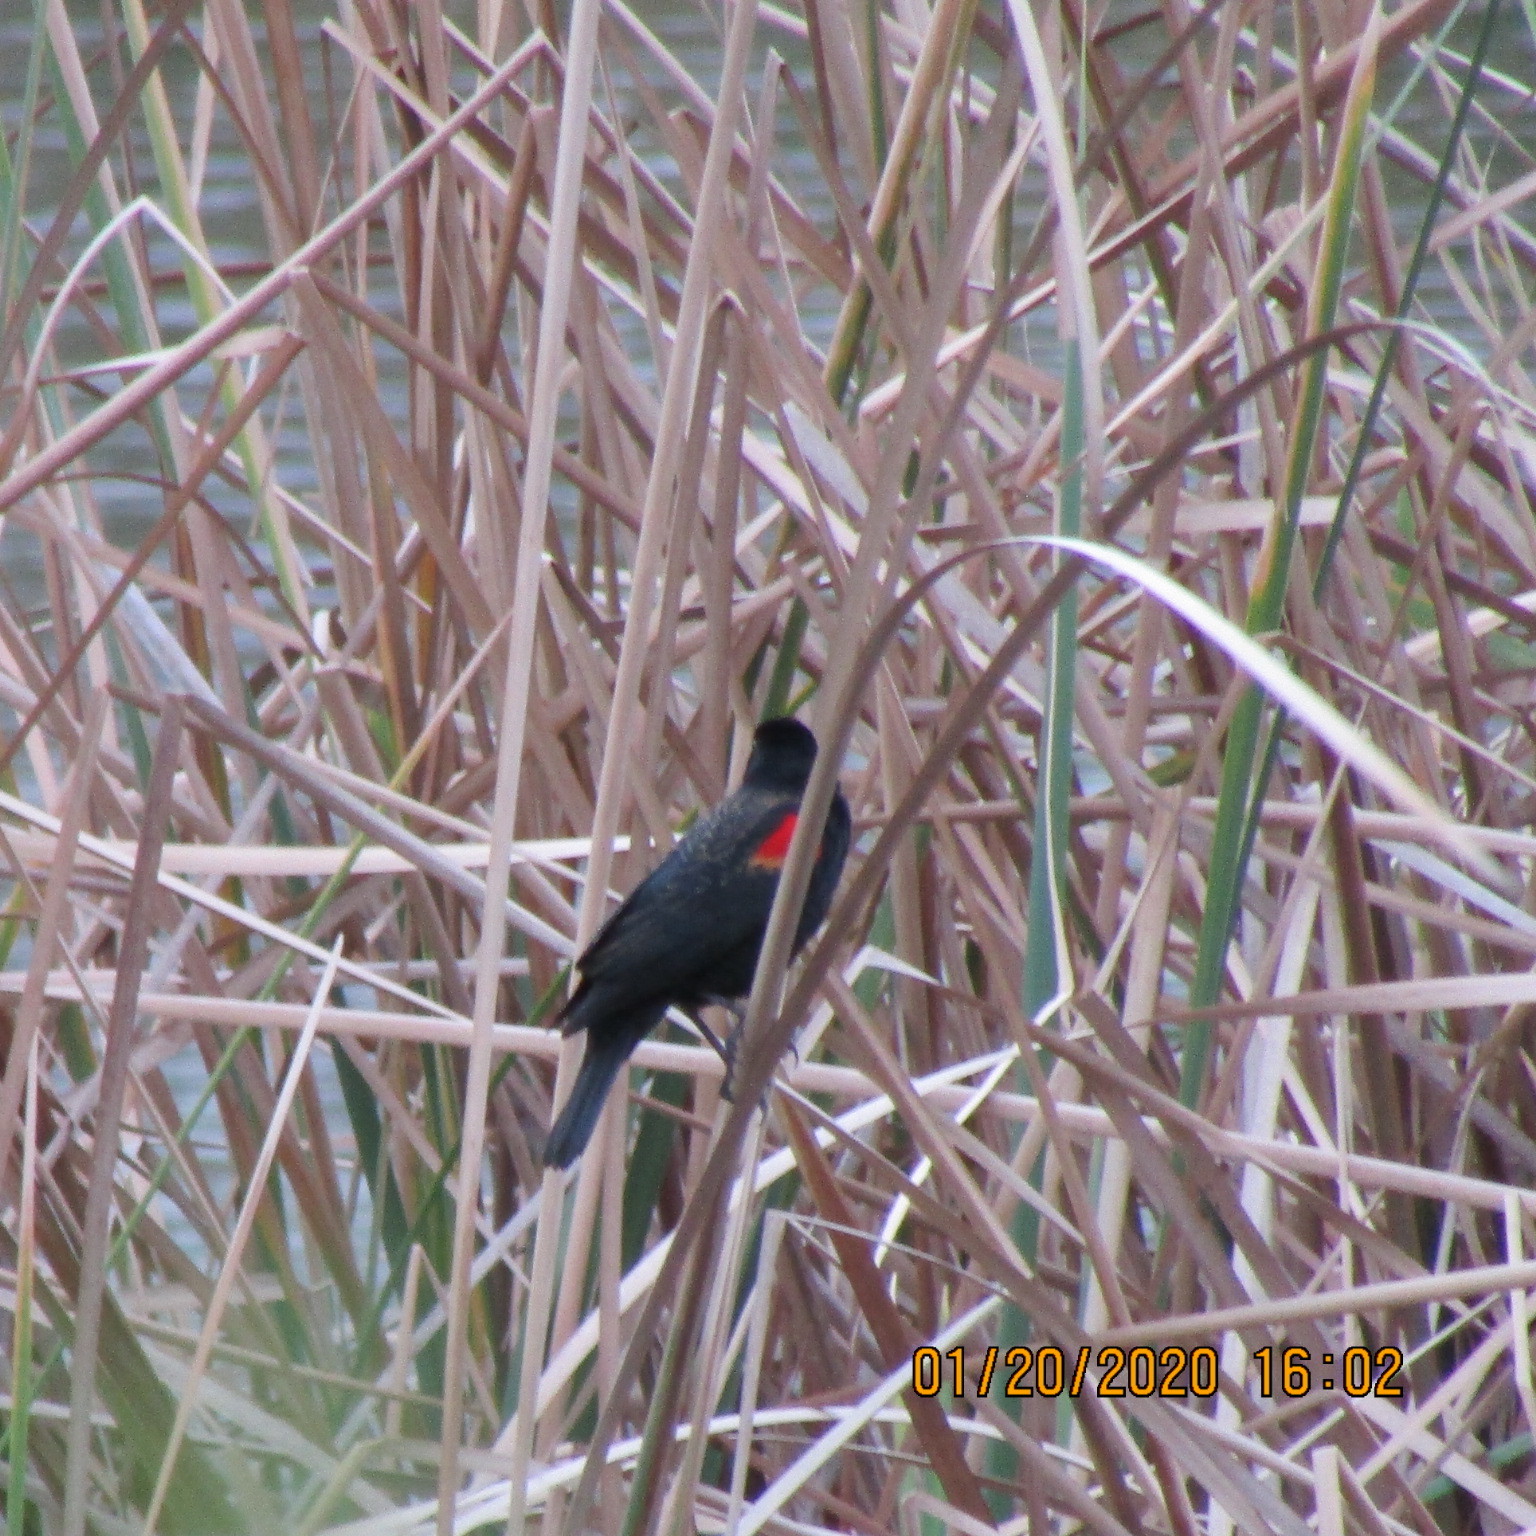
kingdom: Animalia
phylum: Chordata
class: Aves
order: Passeriformes
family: Icteridae
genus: Agelaius
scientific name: Agelaius phoeniceus
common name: Red-winged blackbird
